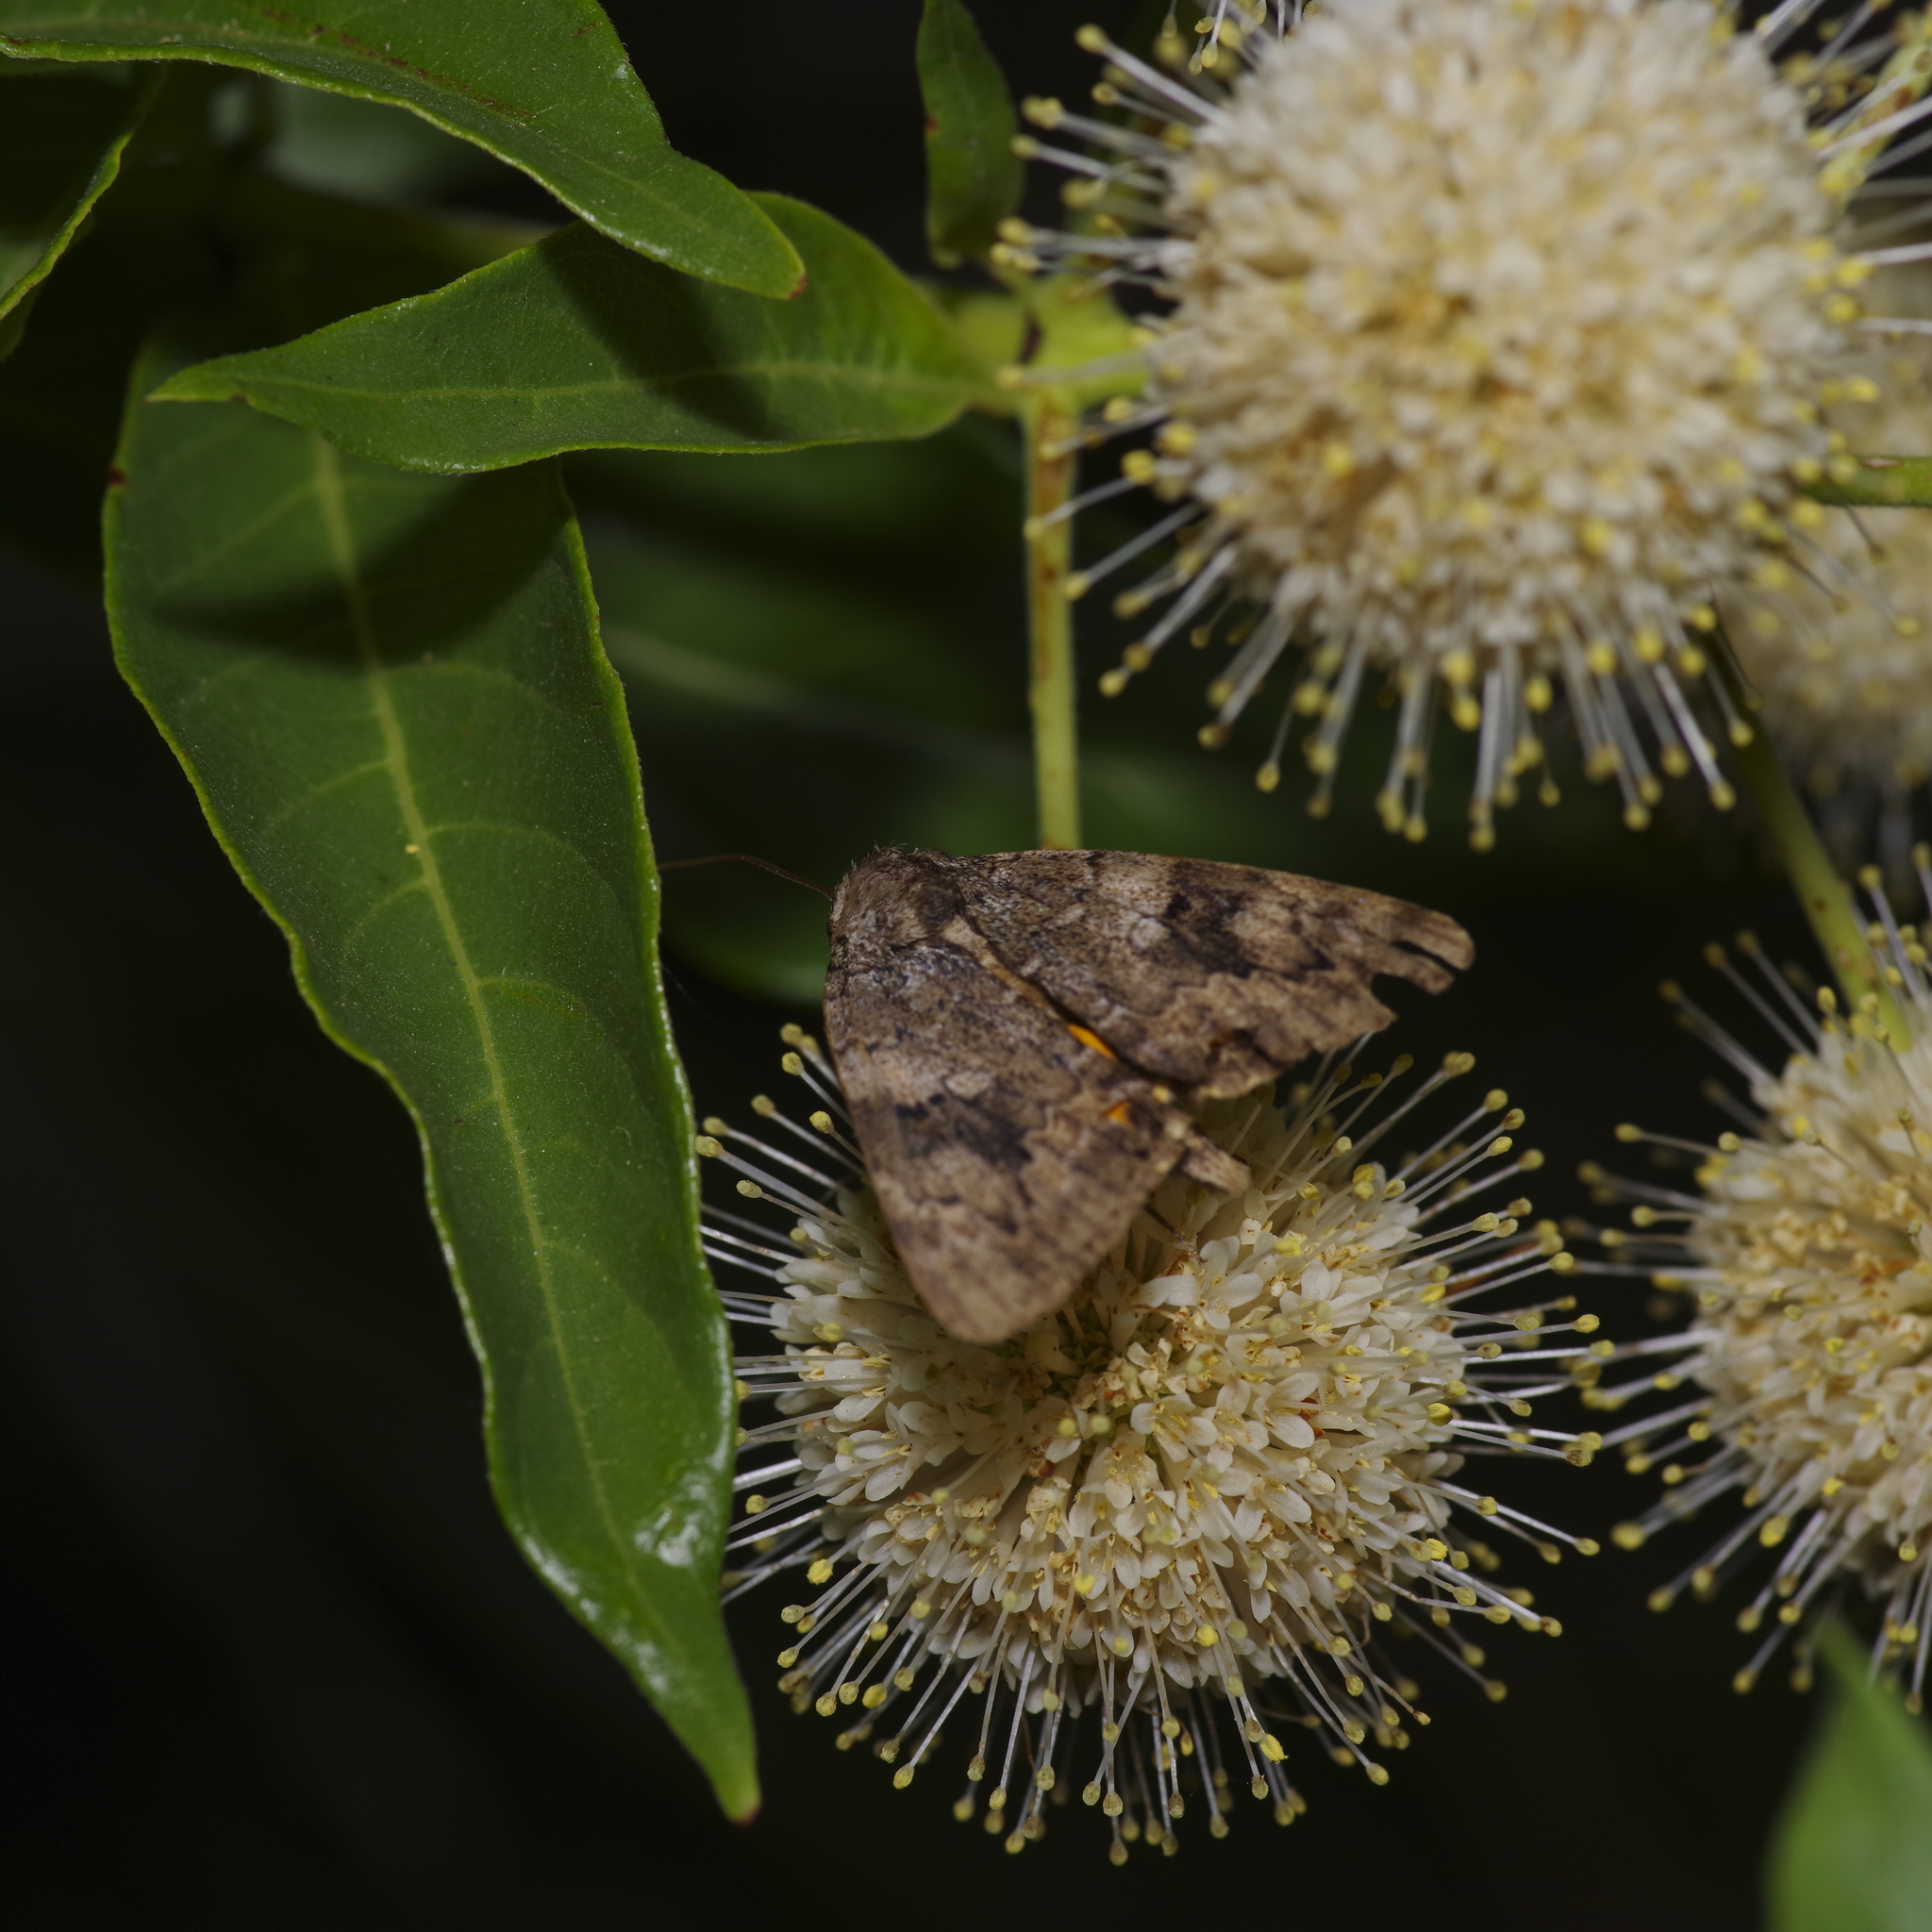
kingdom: Animalia
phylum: Arthropoda
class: Insecta
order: Lepidoptera
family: Erebidae
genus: Catocala
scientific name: Catocala micronympha
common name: Little nymph underwing
